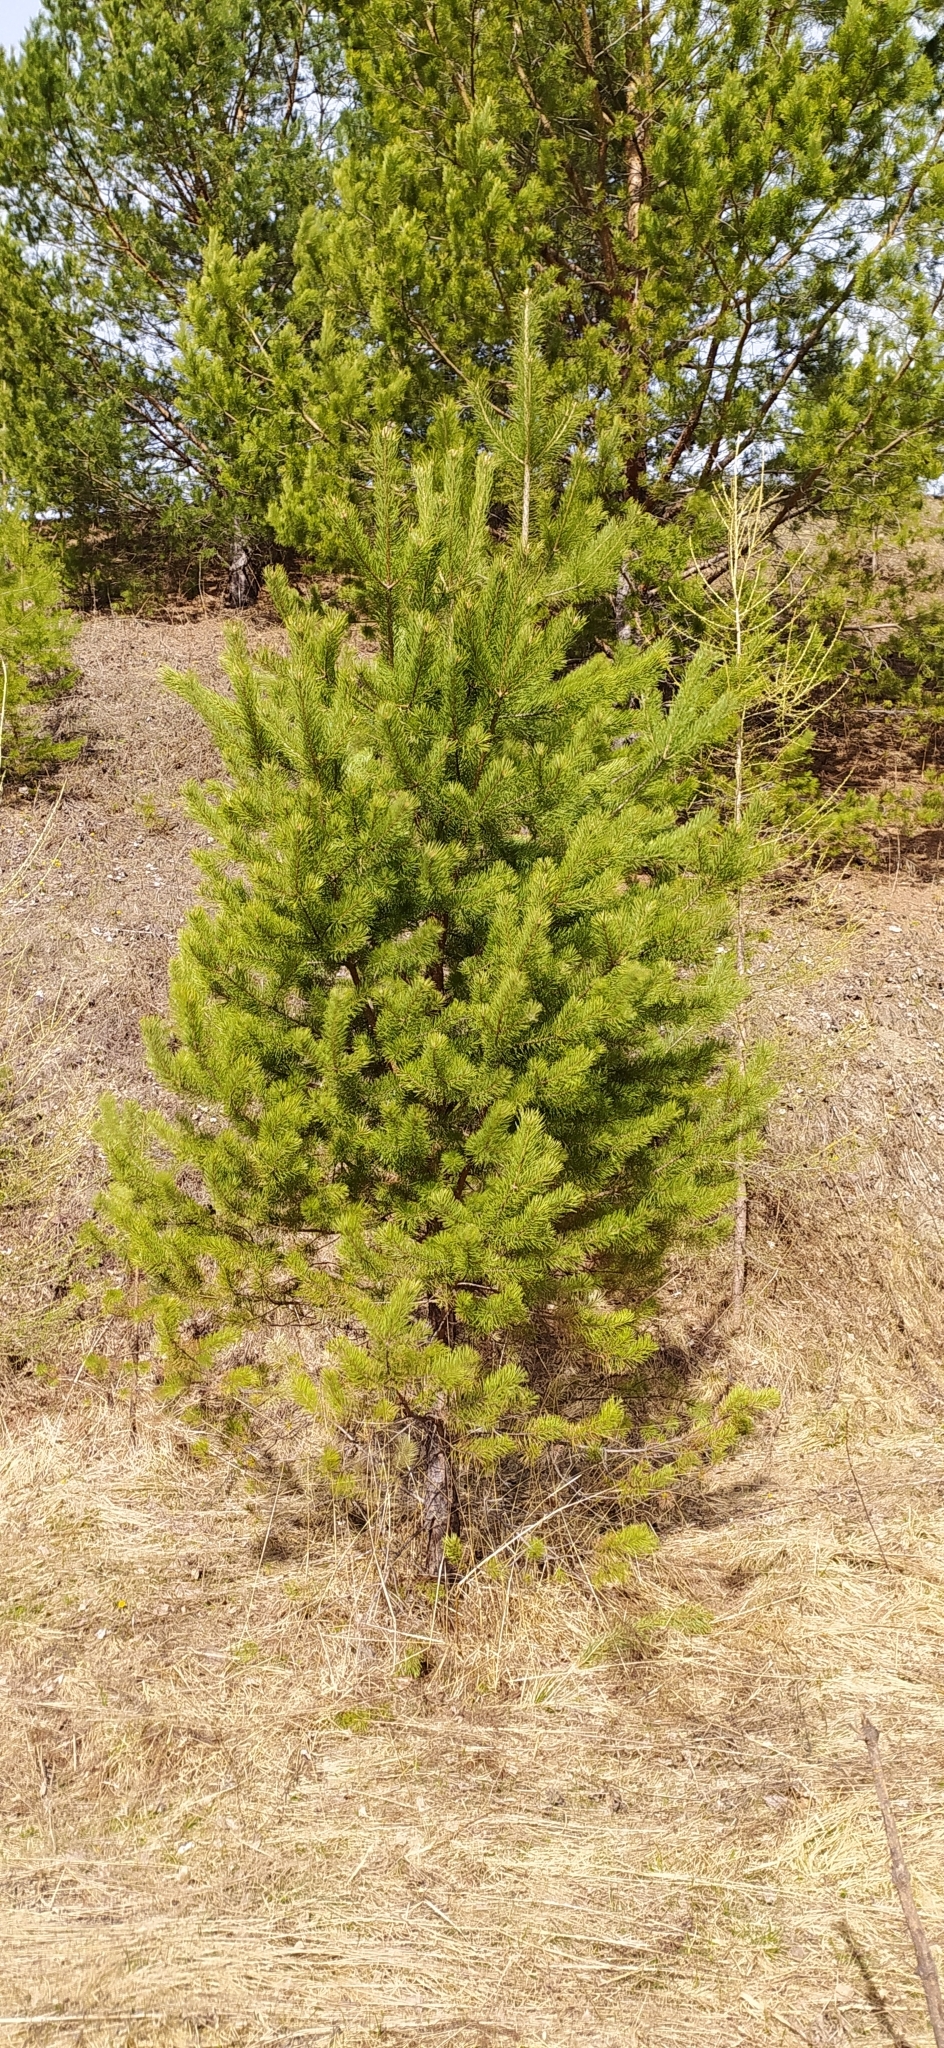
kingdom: Plantae
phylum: Tracheophyta
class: Pinopsida
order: Pinales
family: Pinaceae
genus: Pinus
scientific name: Pinus sylvestris
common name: Scots pine
